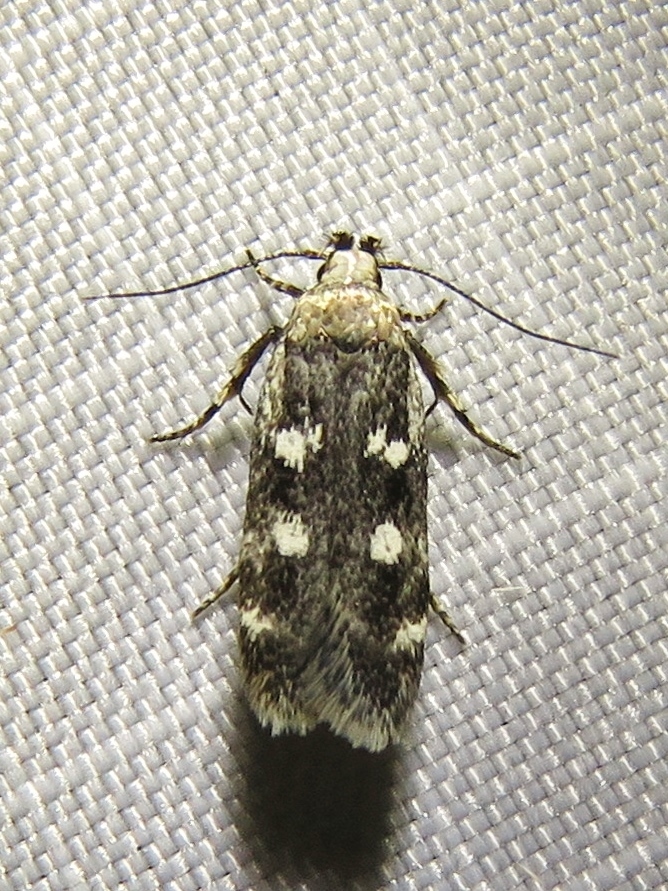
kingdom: Animalia
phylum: Arthropoda
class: Insecta
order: Lepidoptera
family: Gelechiidae
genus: Gelechia
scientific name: Gelechia sestertiella
